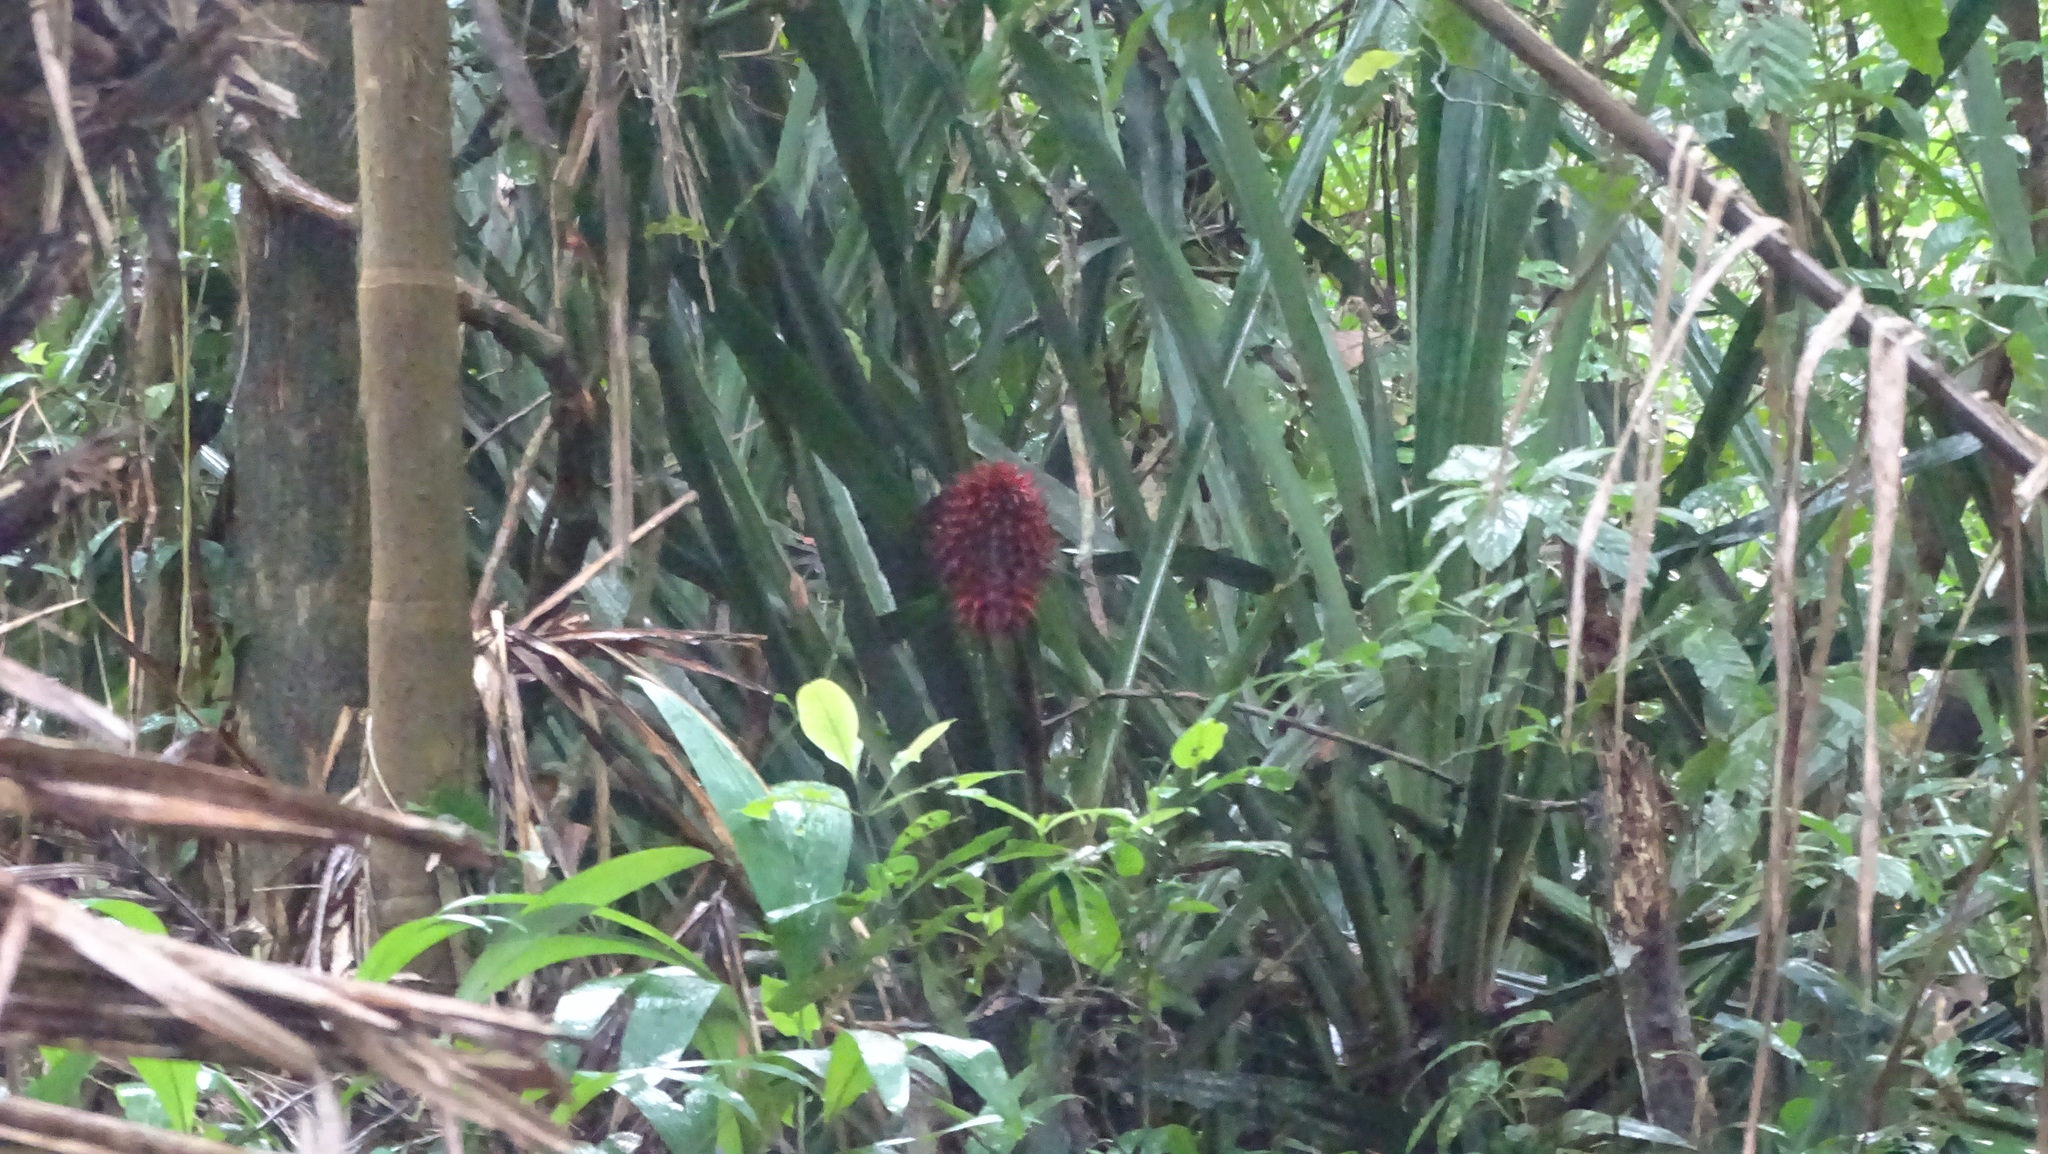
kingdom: Plantae
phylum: Tracheophyta
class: Liliopsida
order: Poales
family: Bromeliaceae
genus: Aechmea
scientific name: Aechmea magdalenae
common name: Arghan
